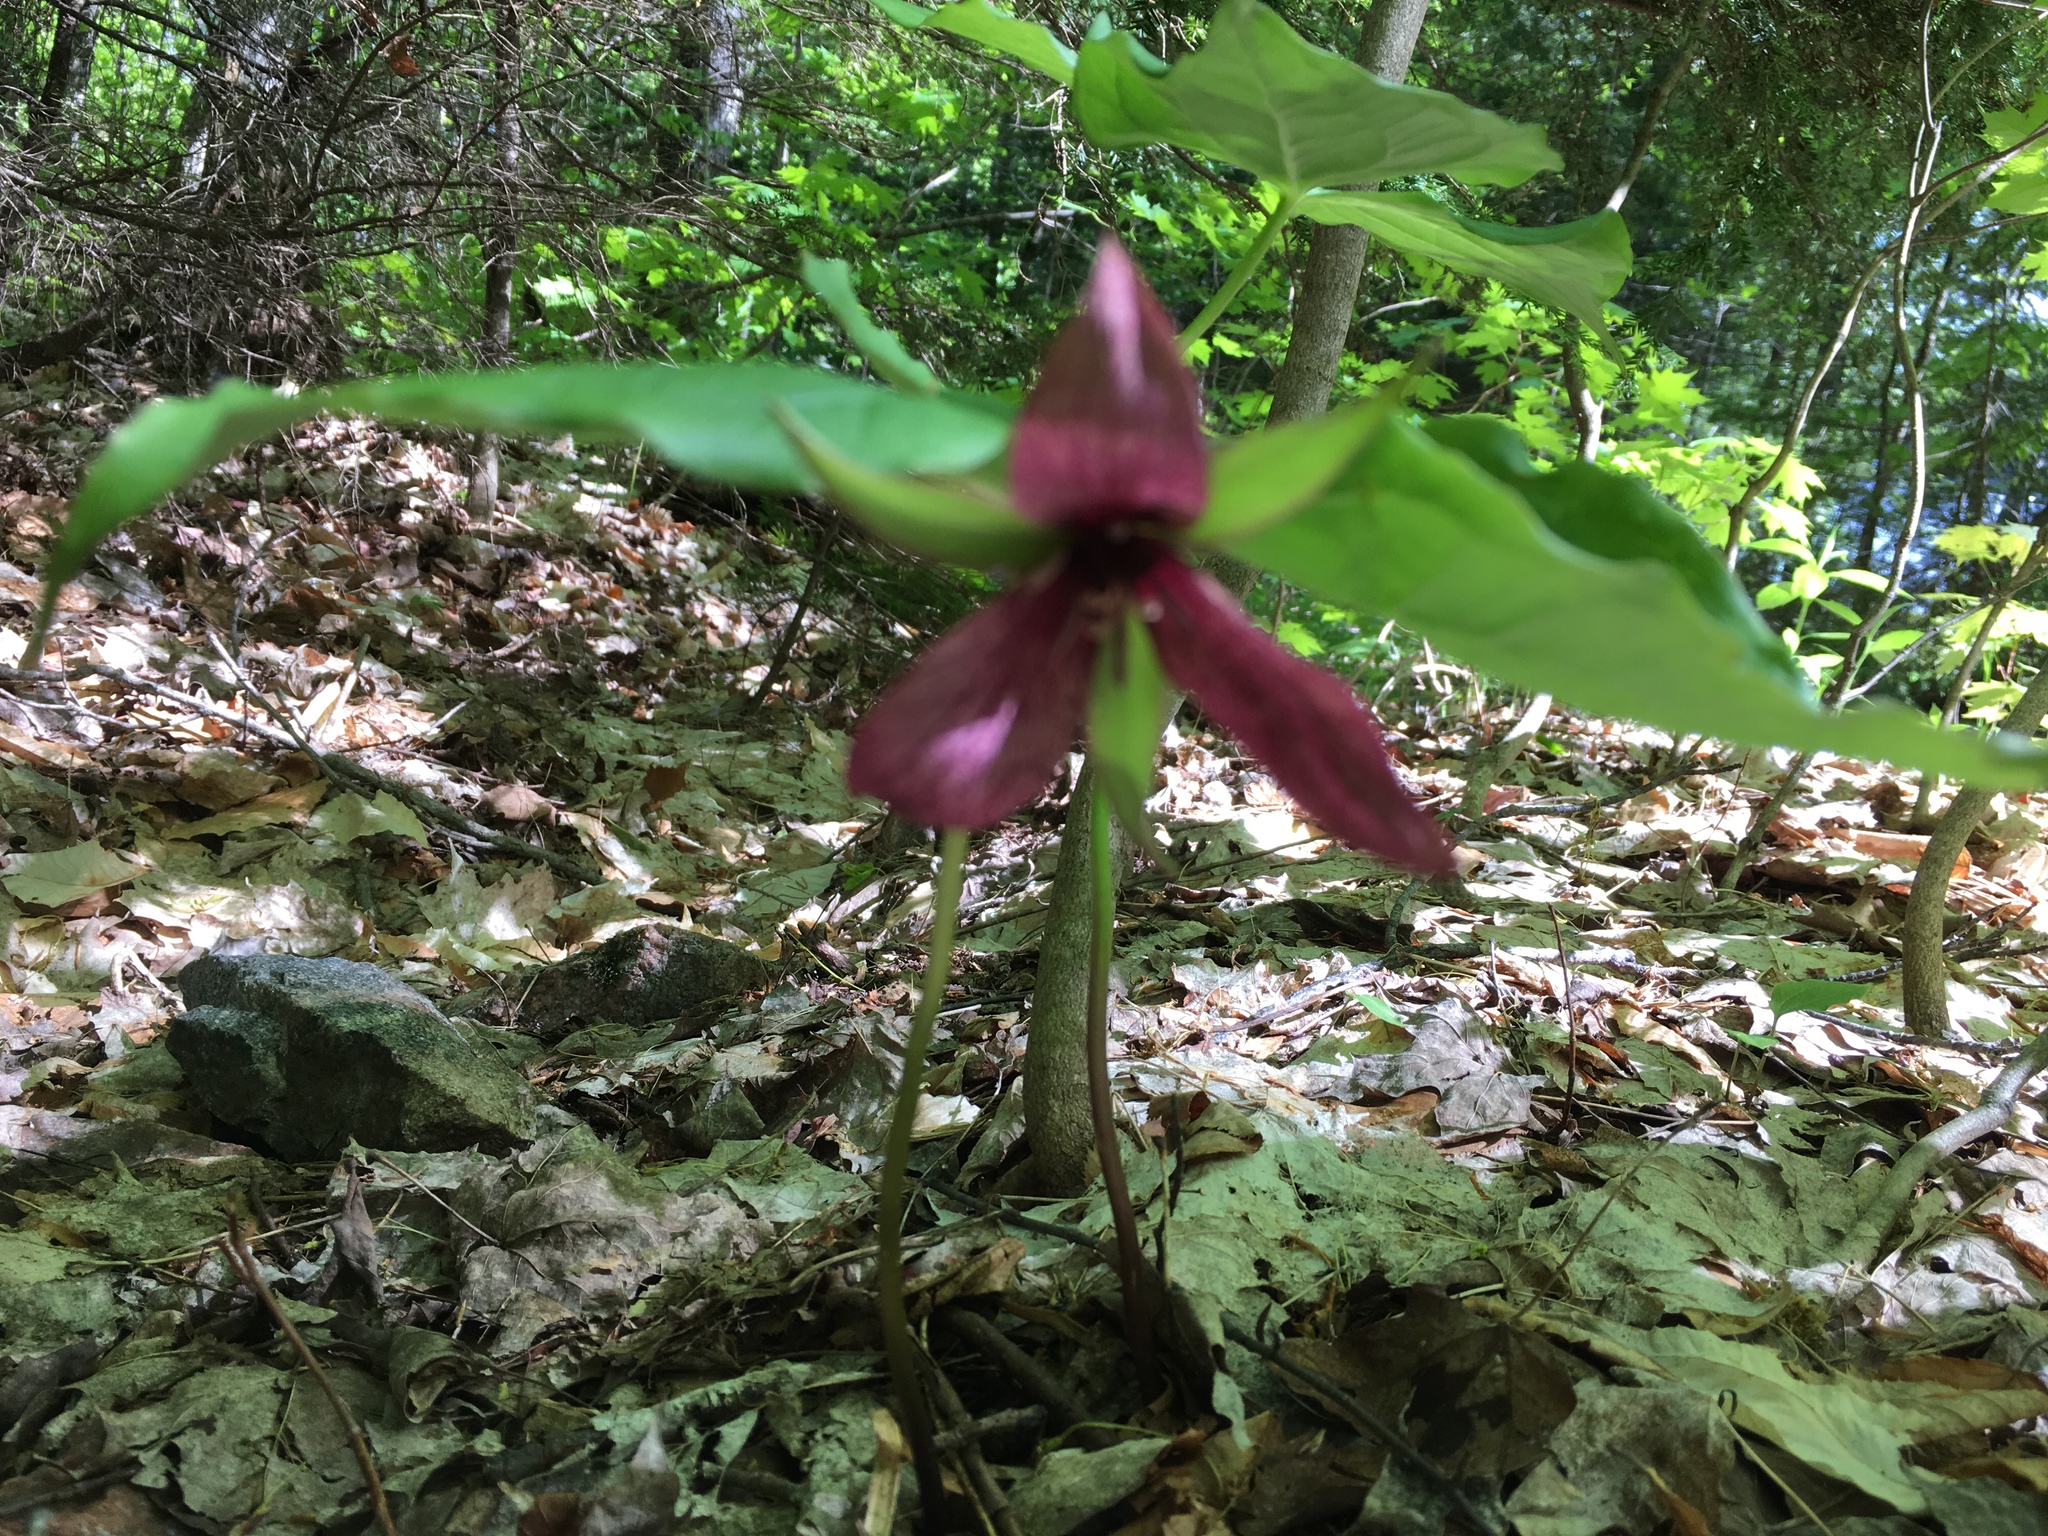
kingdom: Plantae
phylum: Tracheophyta
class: Liliopsida
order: Liliales
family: Melanthiaceae
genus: Trillium
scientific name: Trillium erectum
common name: Purple trillium
